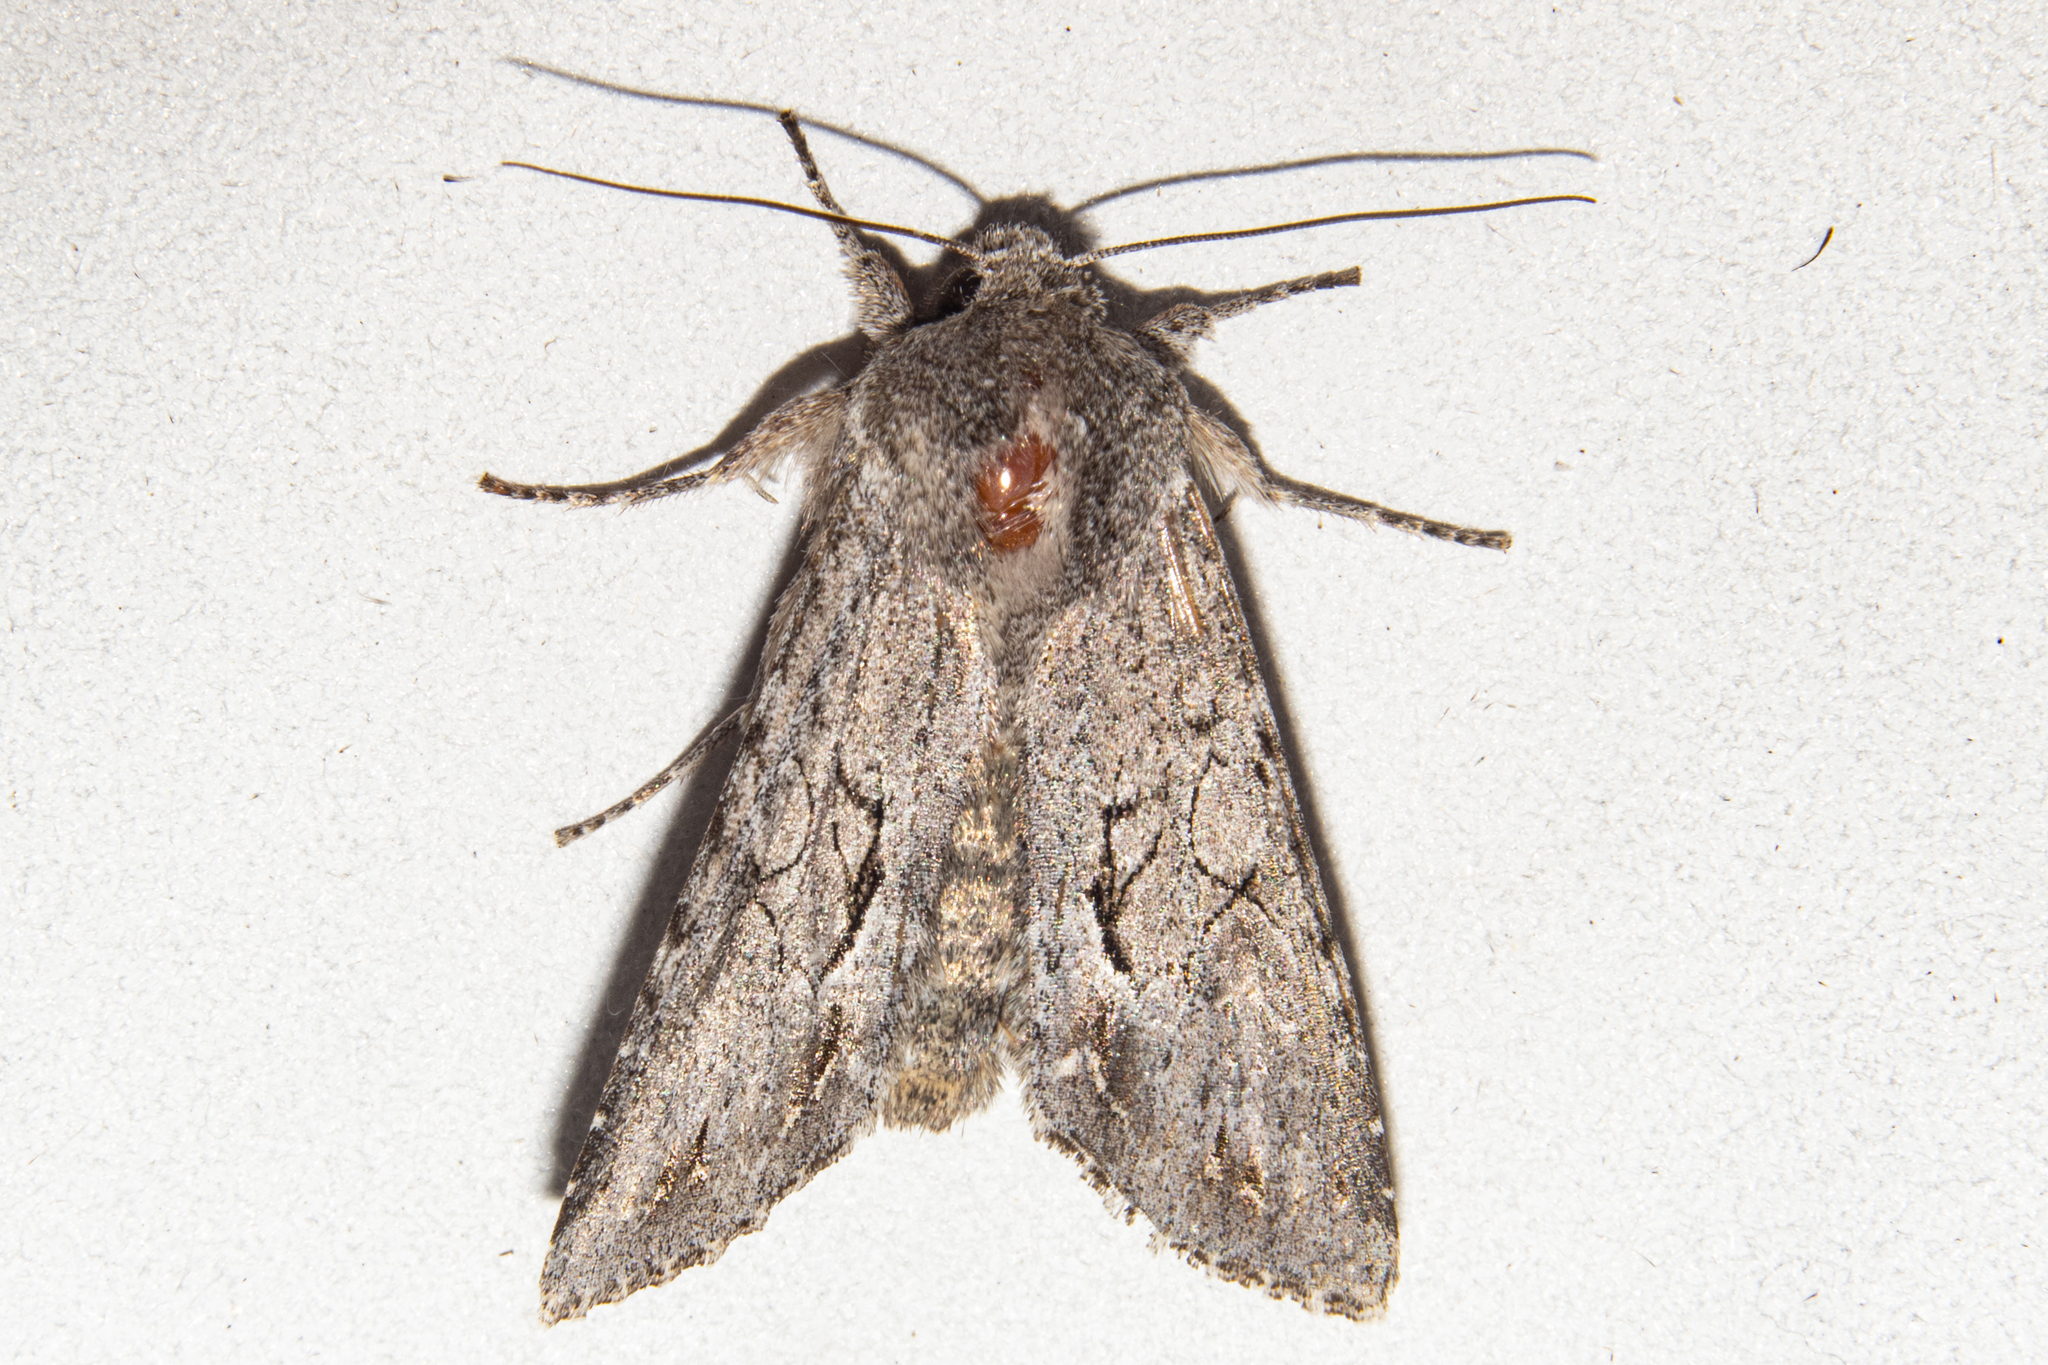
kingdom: Animalia
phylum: Arthropoda
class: Insecta
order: Lepidoptera
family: Noctuidae
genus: Ichneutica
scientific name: Ichneutica
